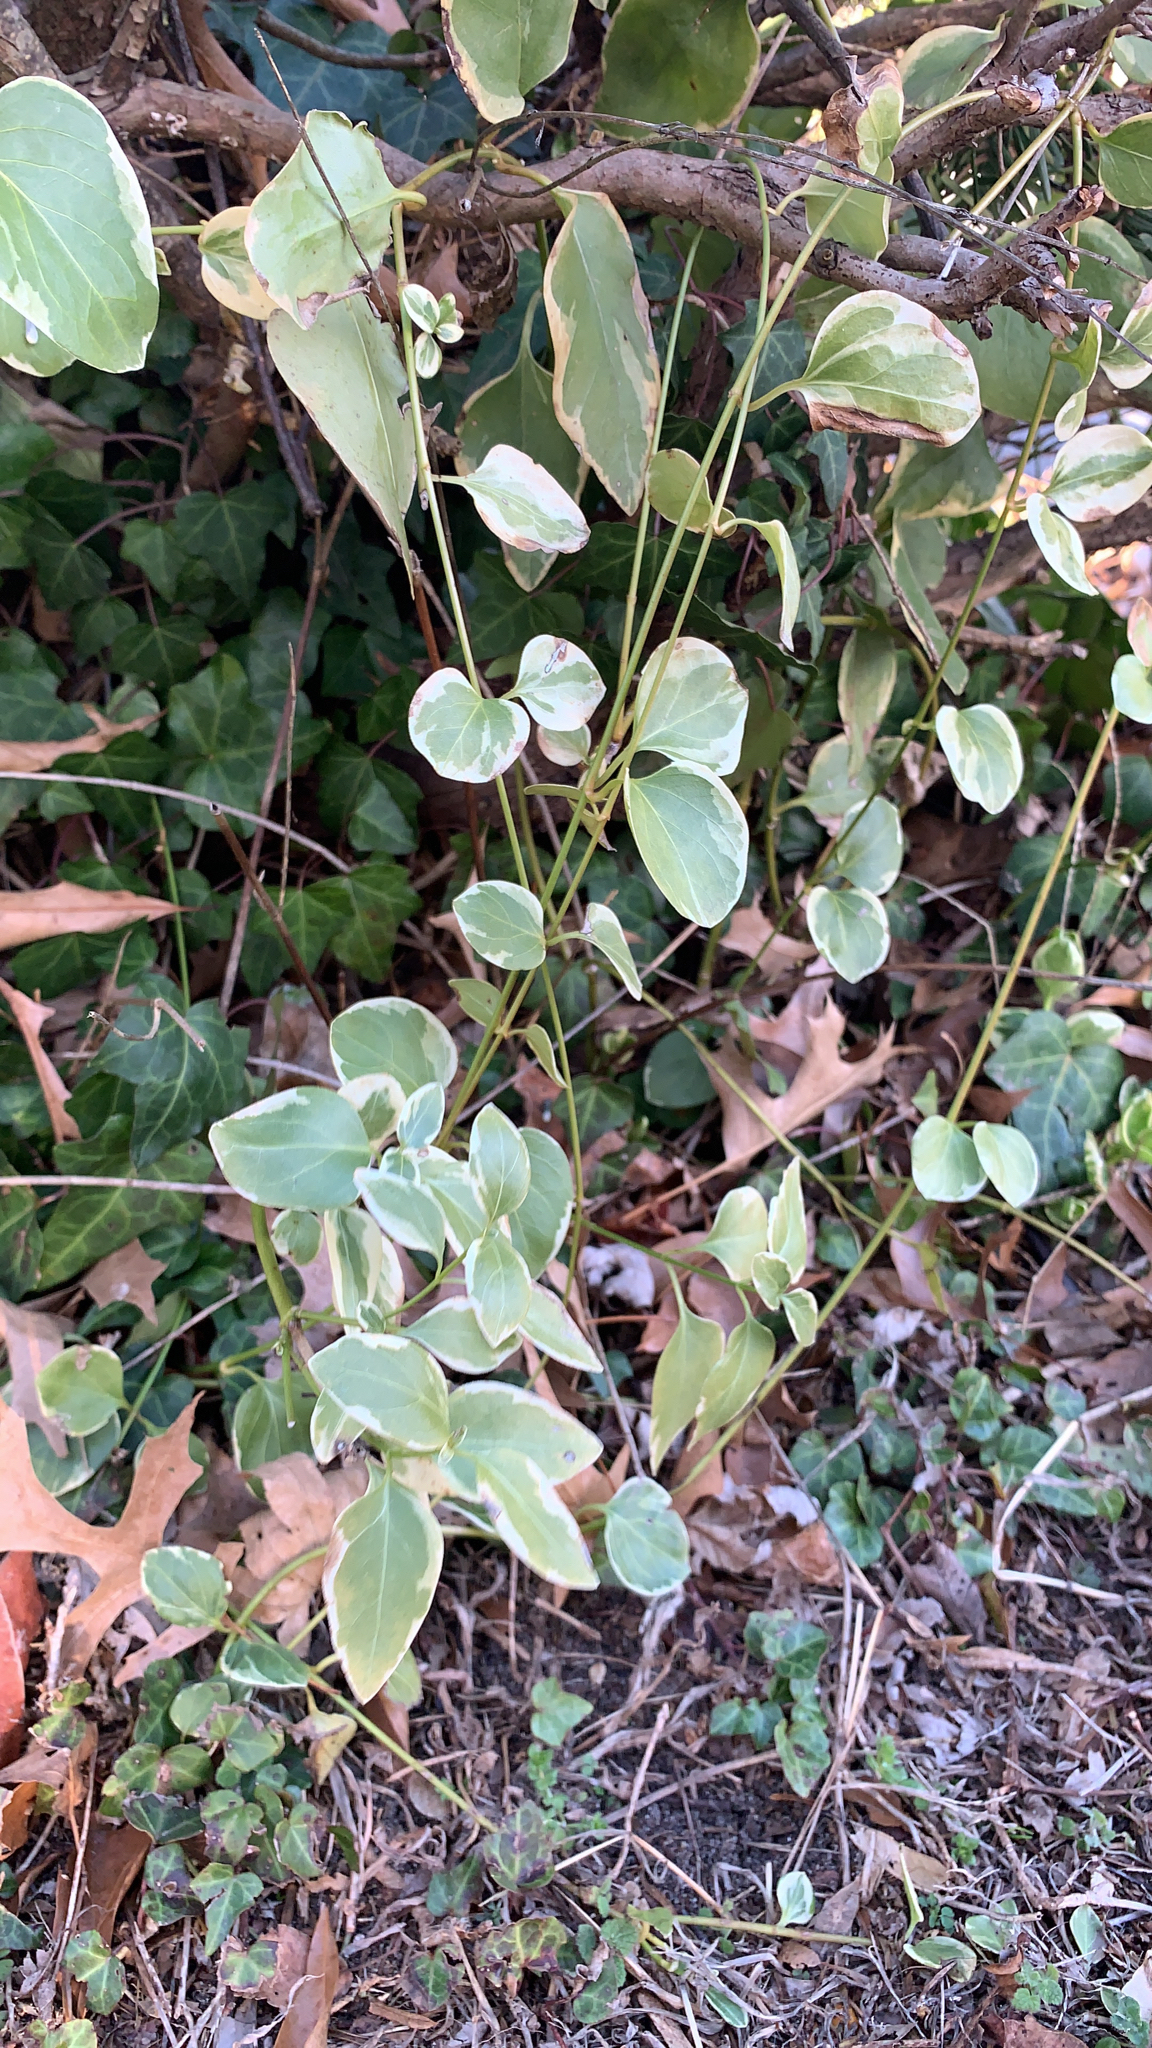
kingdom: Plantae
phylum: Tracheophyta
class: Magnoliopsida
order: Gentianales
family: Apocynaceae
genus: Vinca
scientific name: Vinca major
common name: Greater periwinkle
